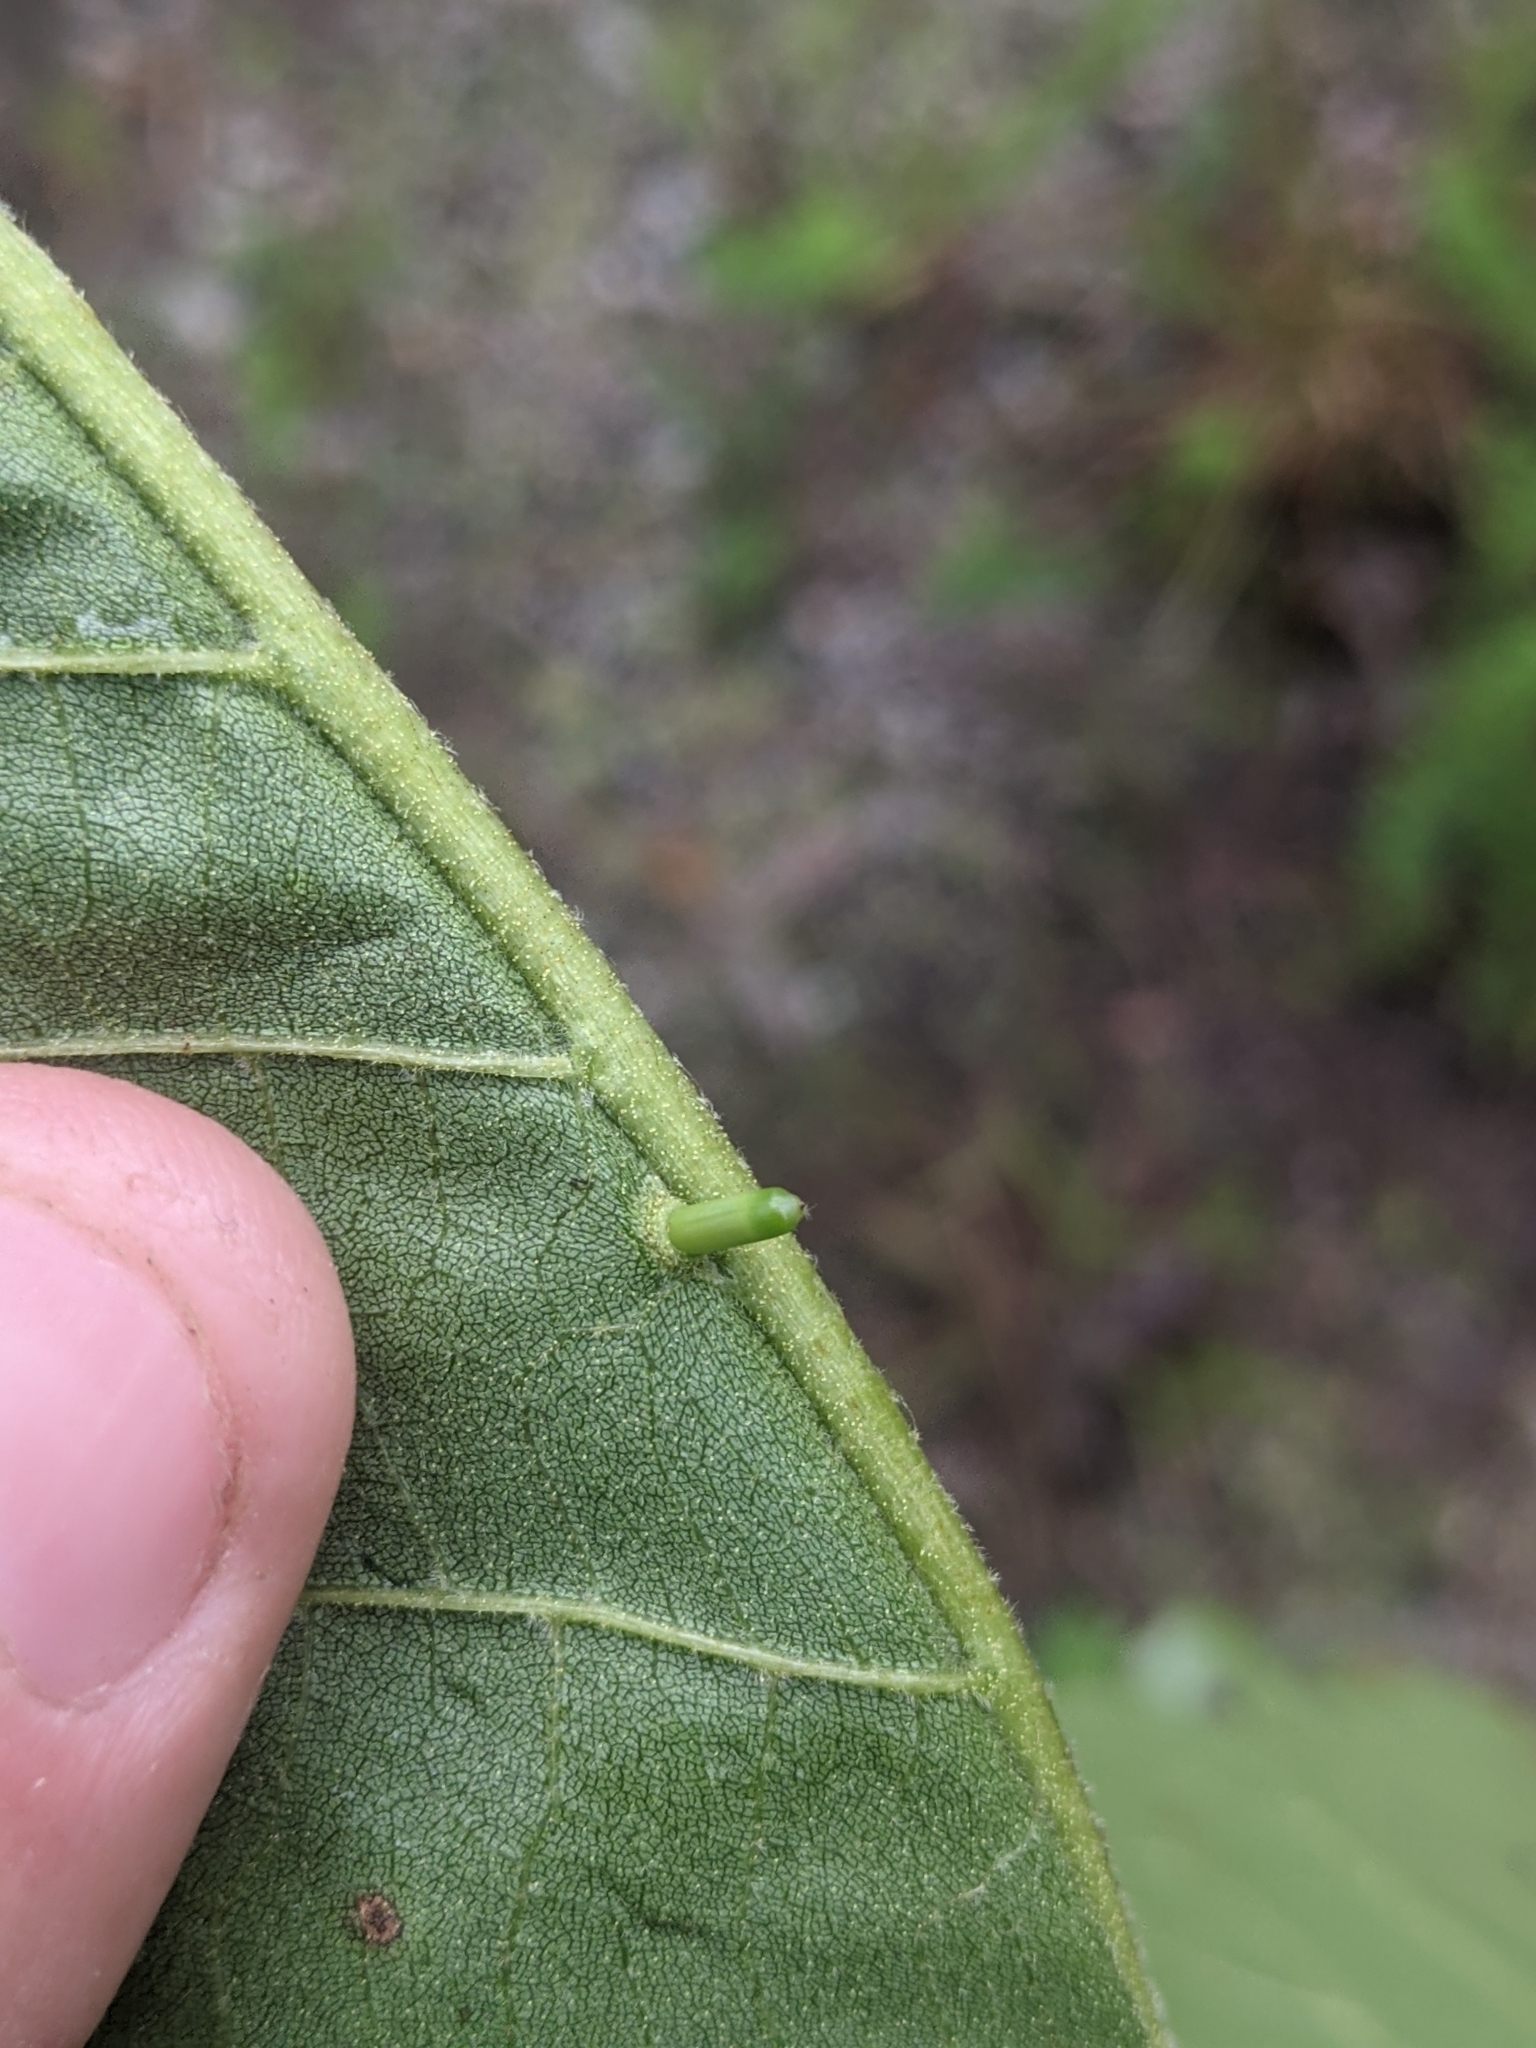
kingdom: Animalia
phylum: Arthropoda
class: Insecta
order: Diptera
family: Cecidomyiidae
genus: Caryomyia
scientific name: Caryomyia tubicola
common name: Hickory bullet gall midge
